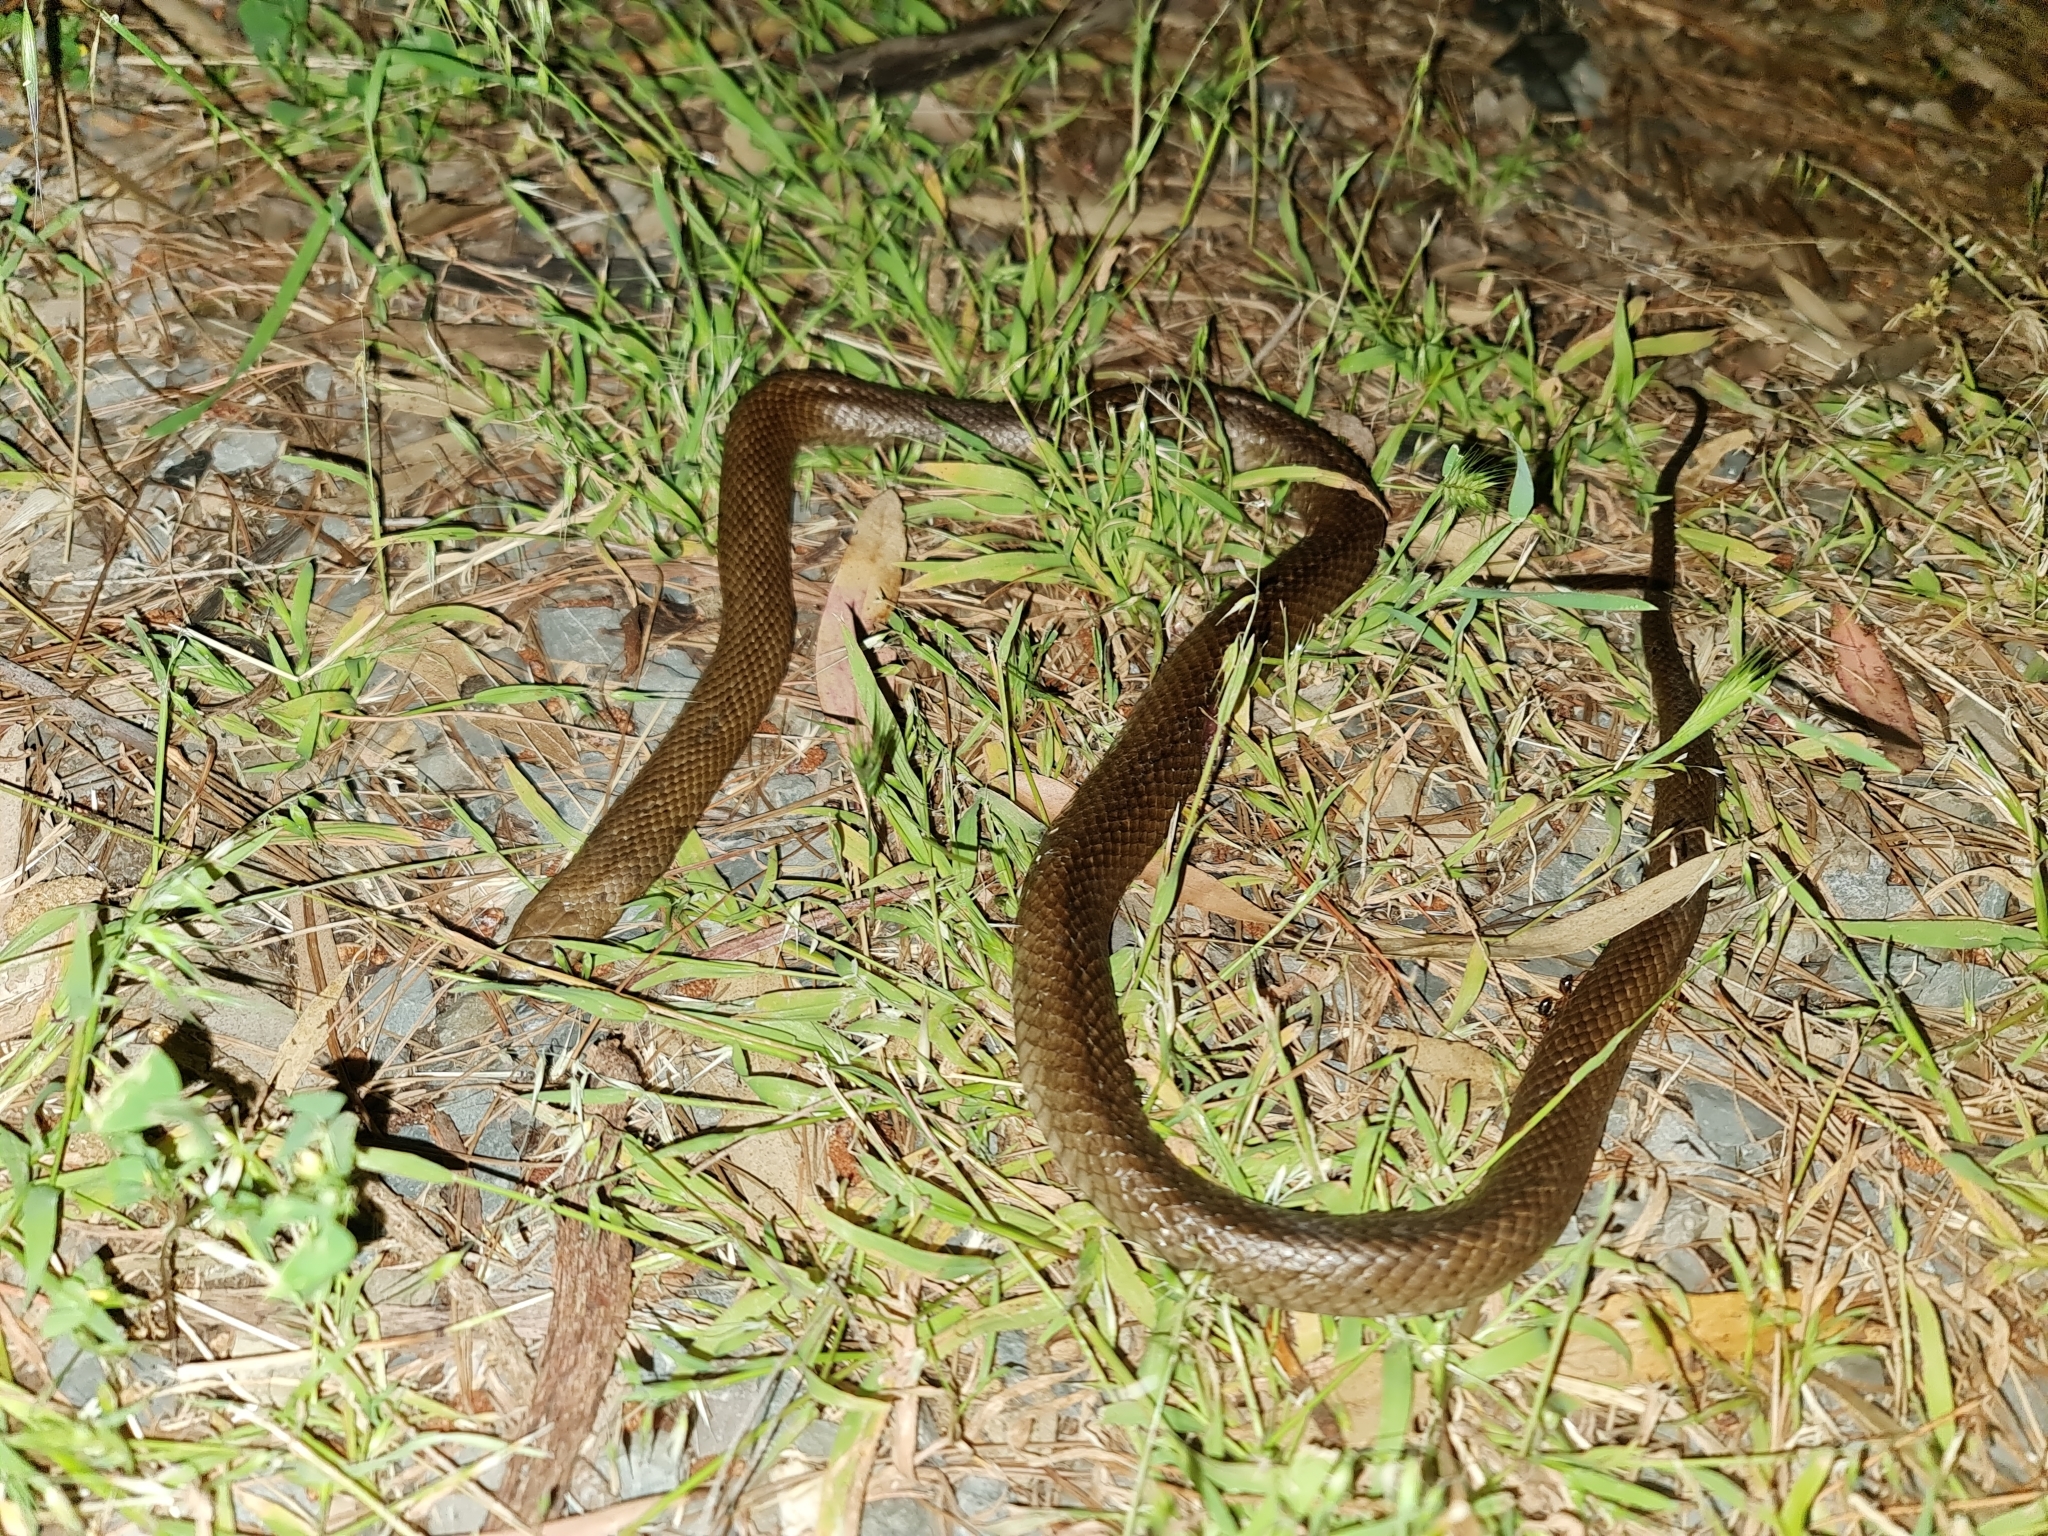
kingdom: Animalia
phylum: Chordata
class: Squamata
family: Elapidae
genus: Pseudonaja
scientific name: Pseudonaja textilis
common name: Eastern brown snake
